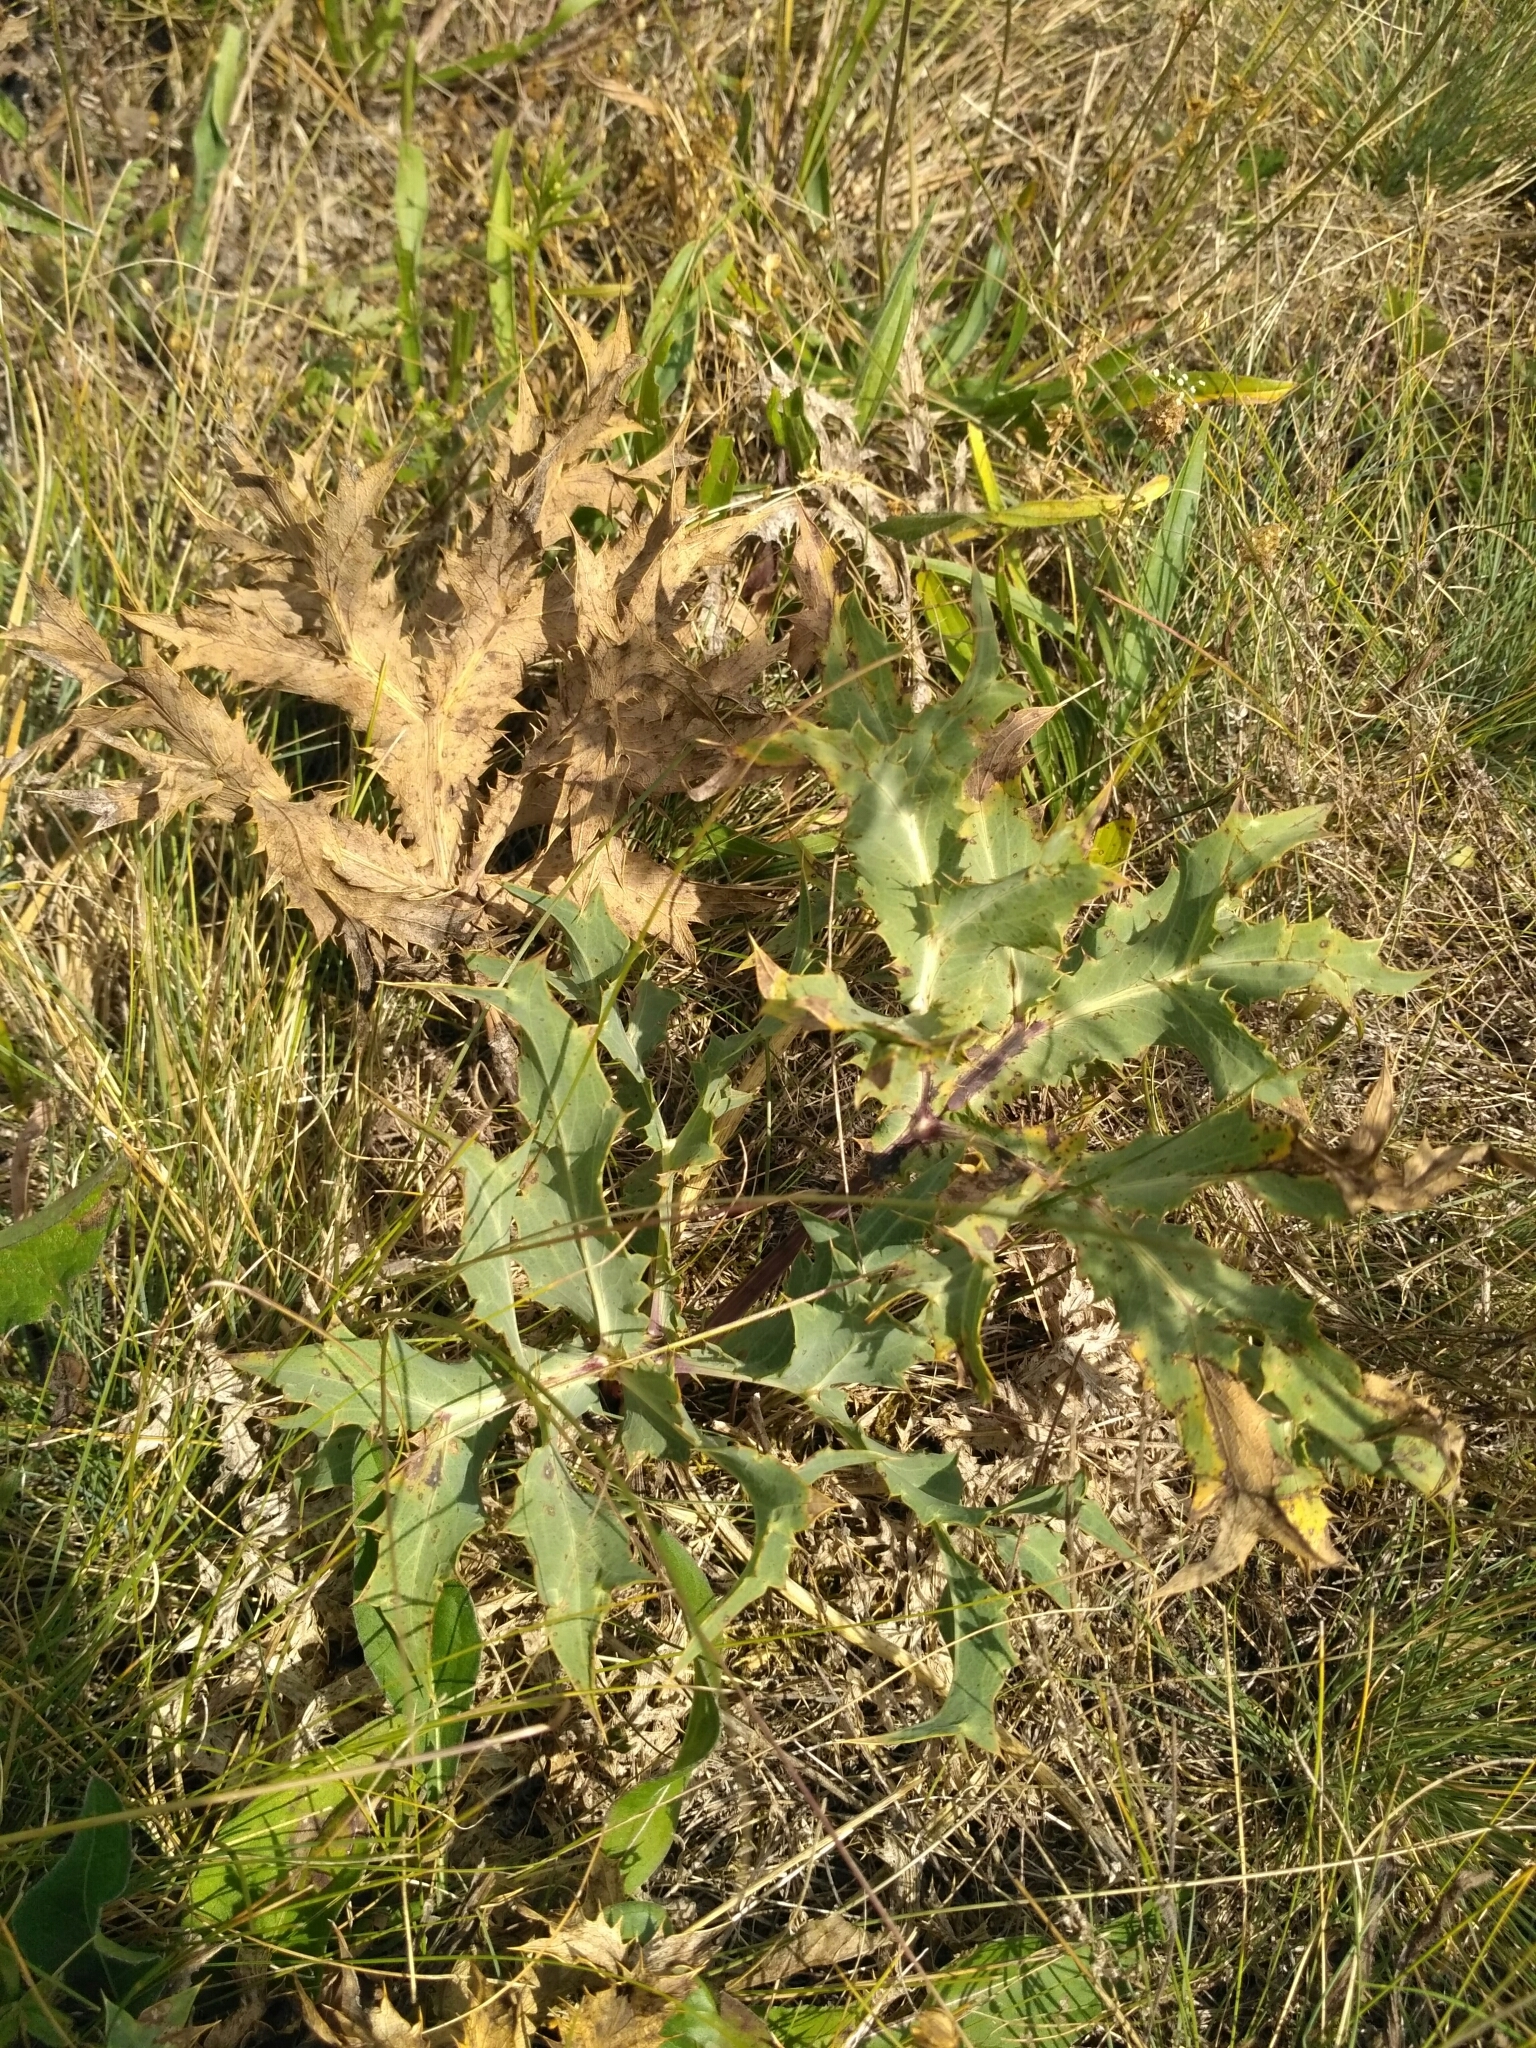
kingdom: Plantae
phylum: Tracheophyta
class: Magnoliopsida
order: Apiales
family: Apiaceae
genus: Eryngium
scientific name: Eryngium campestre
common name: Field eryngo
